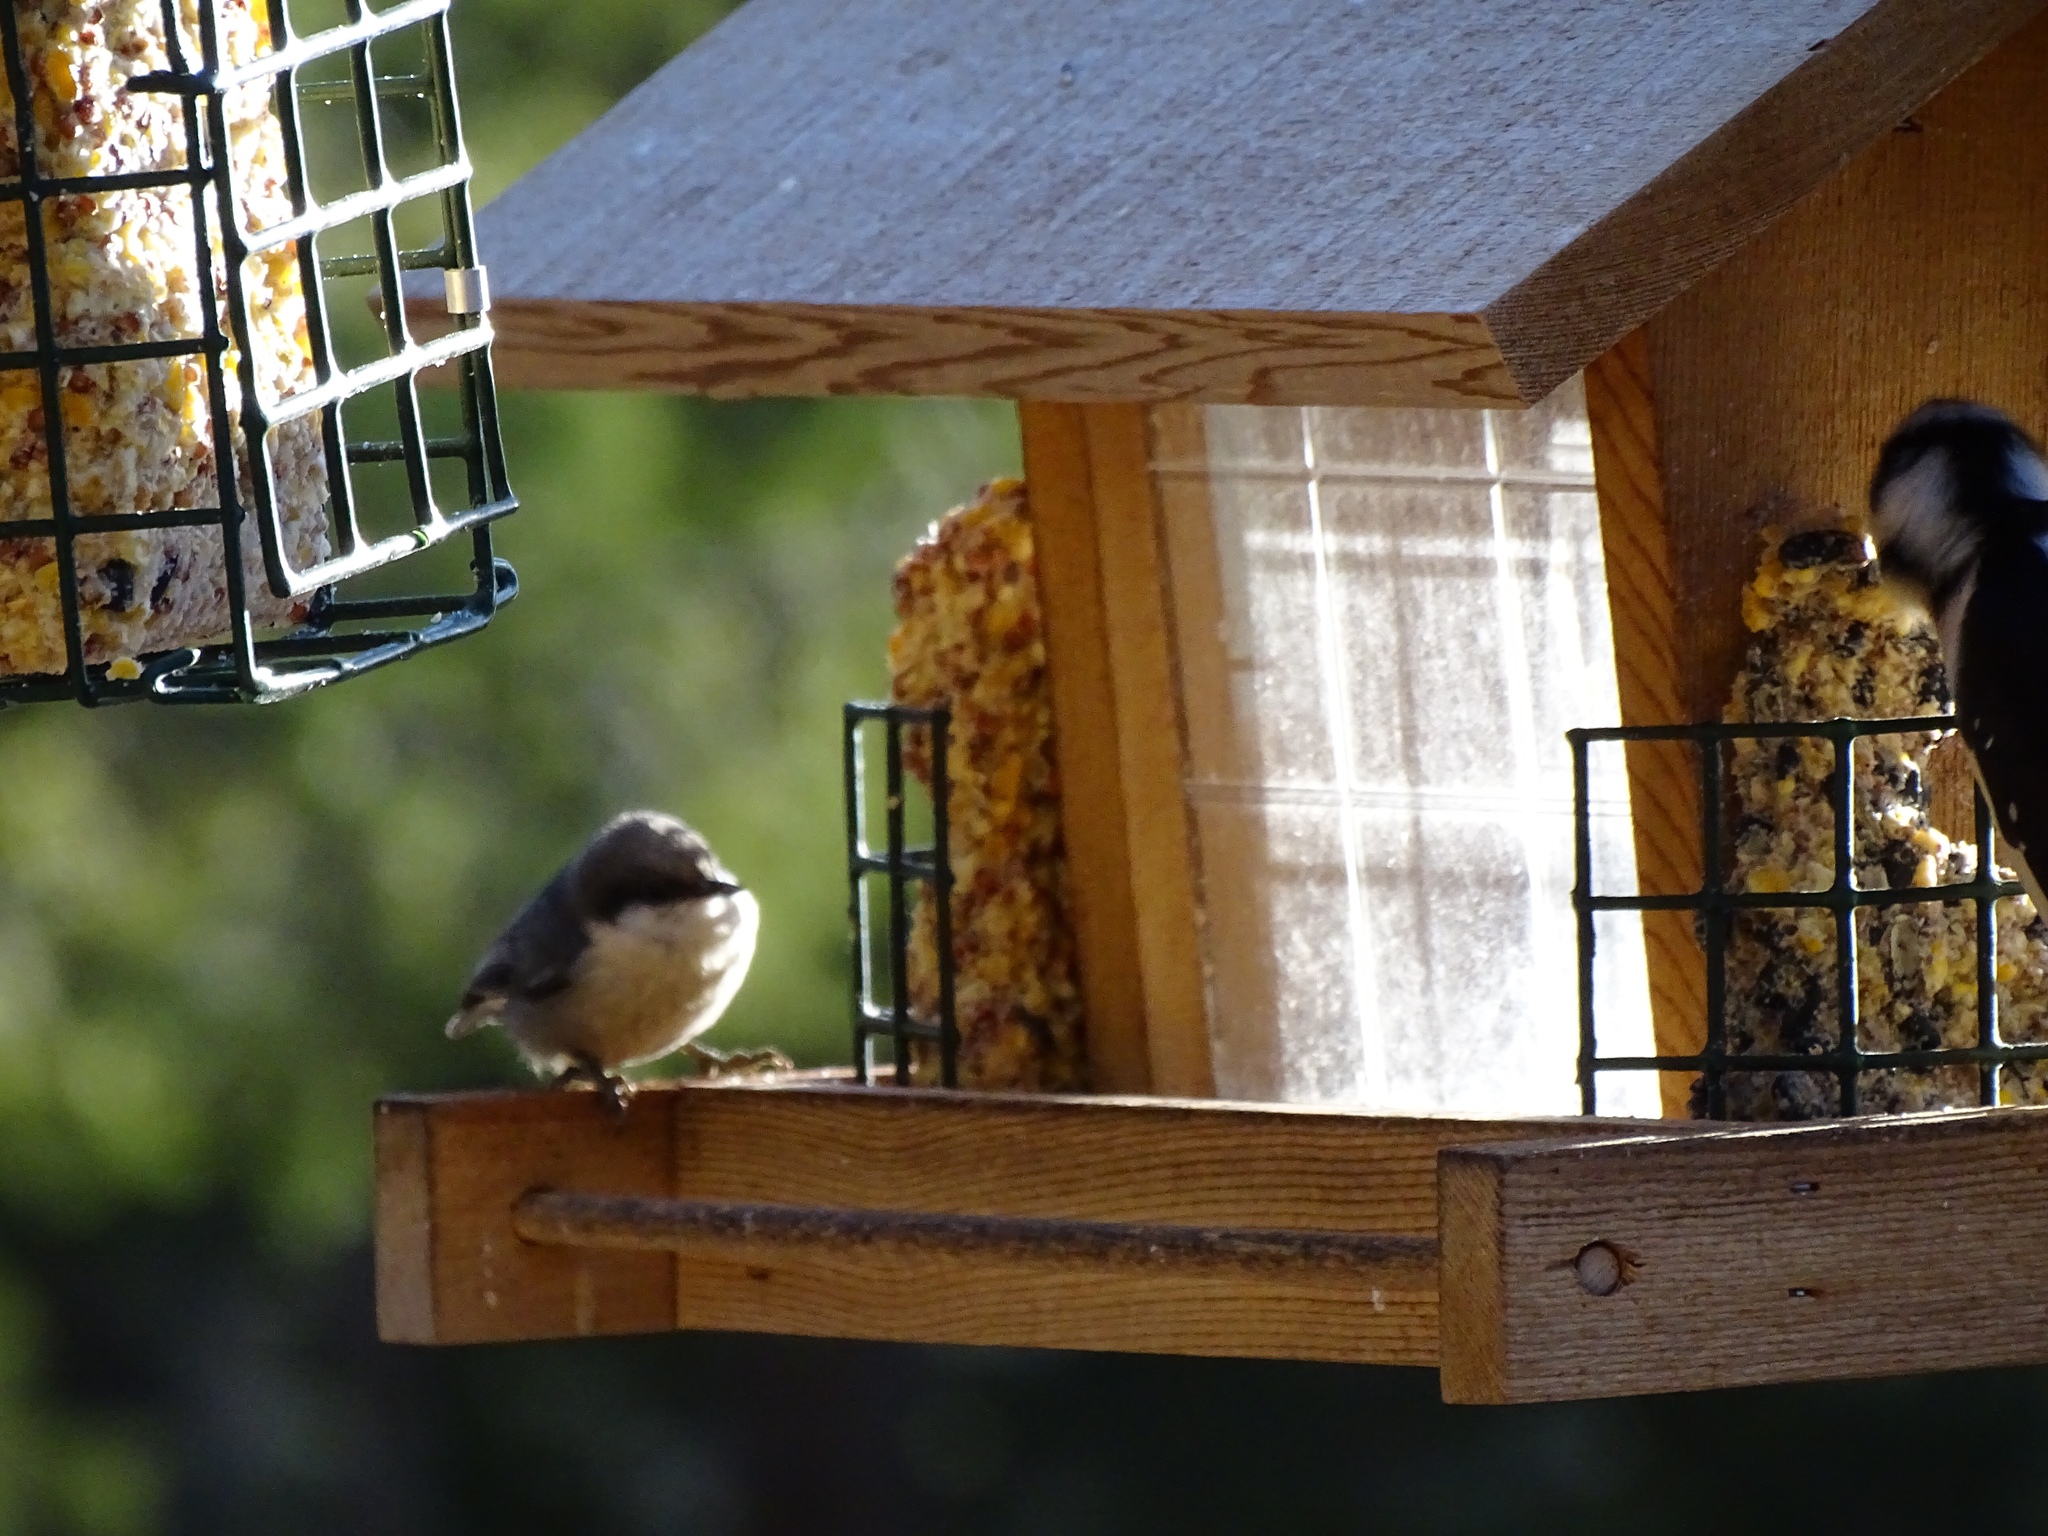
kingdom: Animalia
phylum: Chordata
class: Aves
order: Passeriformes
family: Sittidae
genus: Sitta
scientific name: Sitta pygmaea
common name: Pygmy nuthatch
